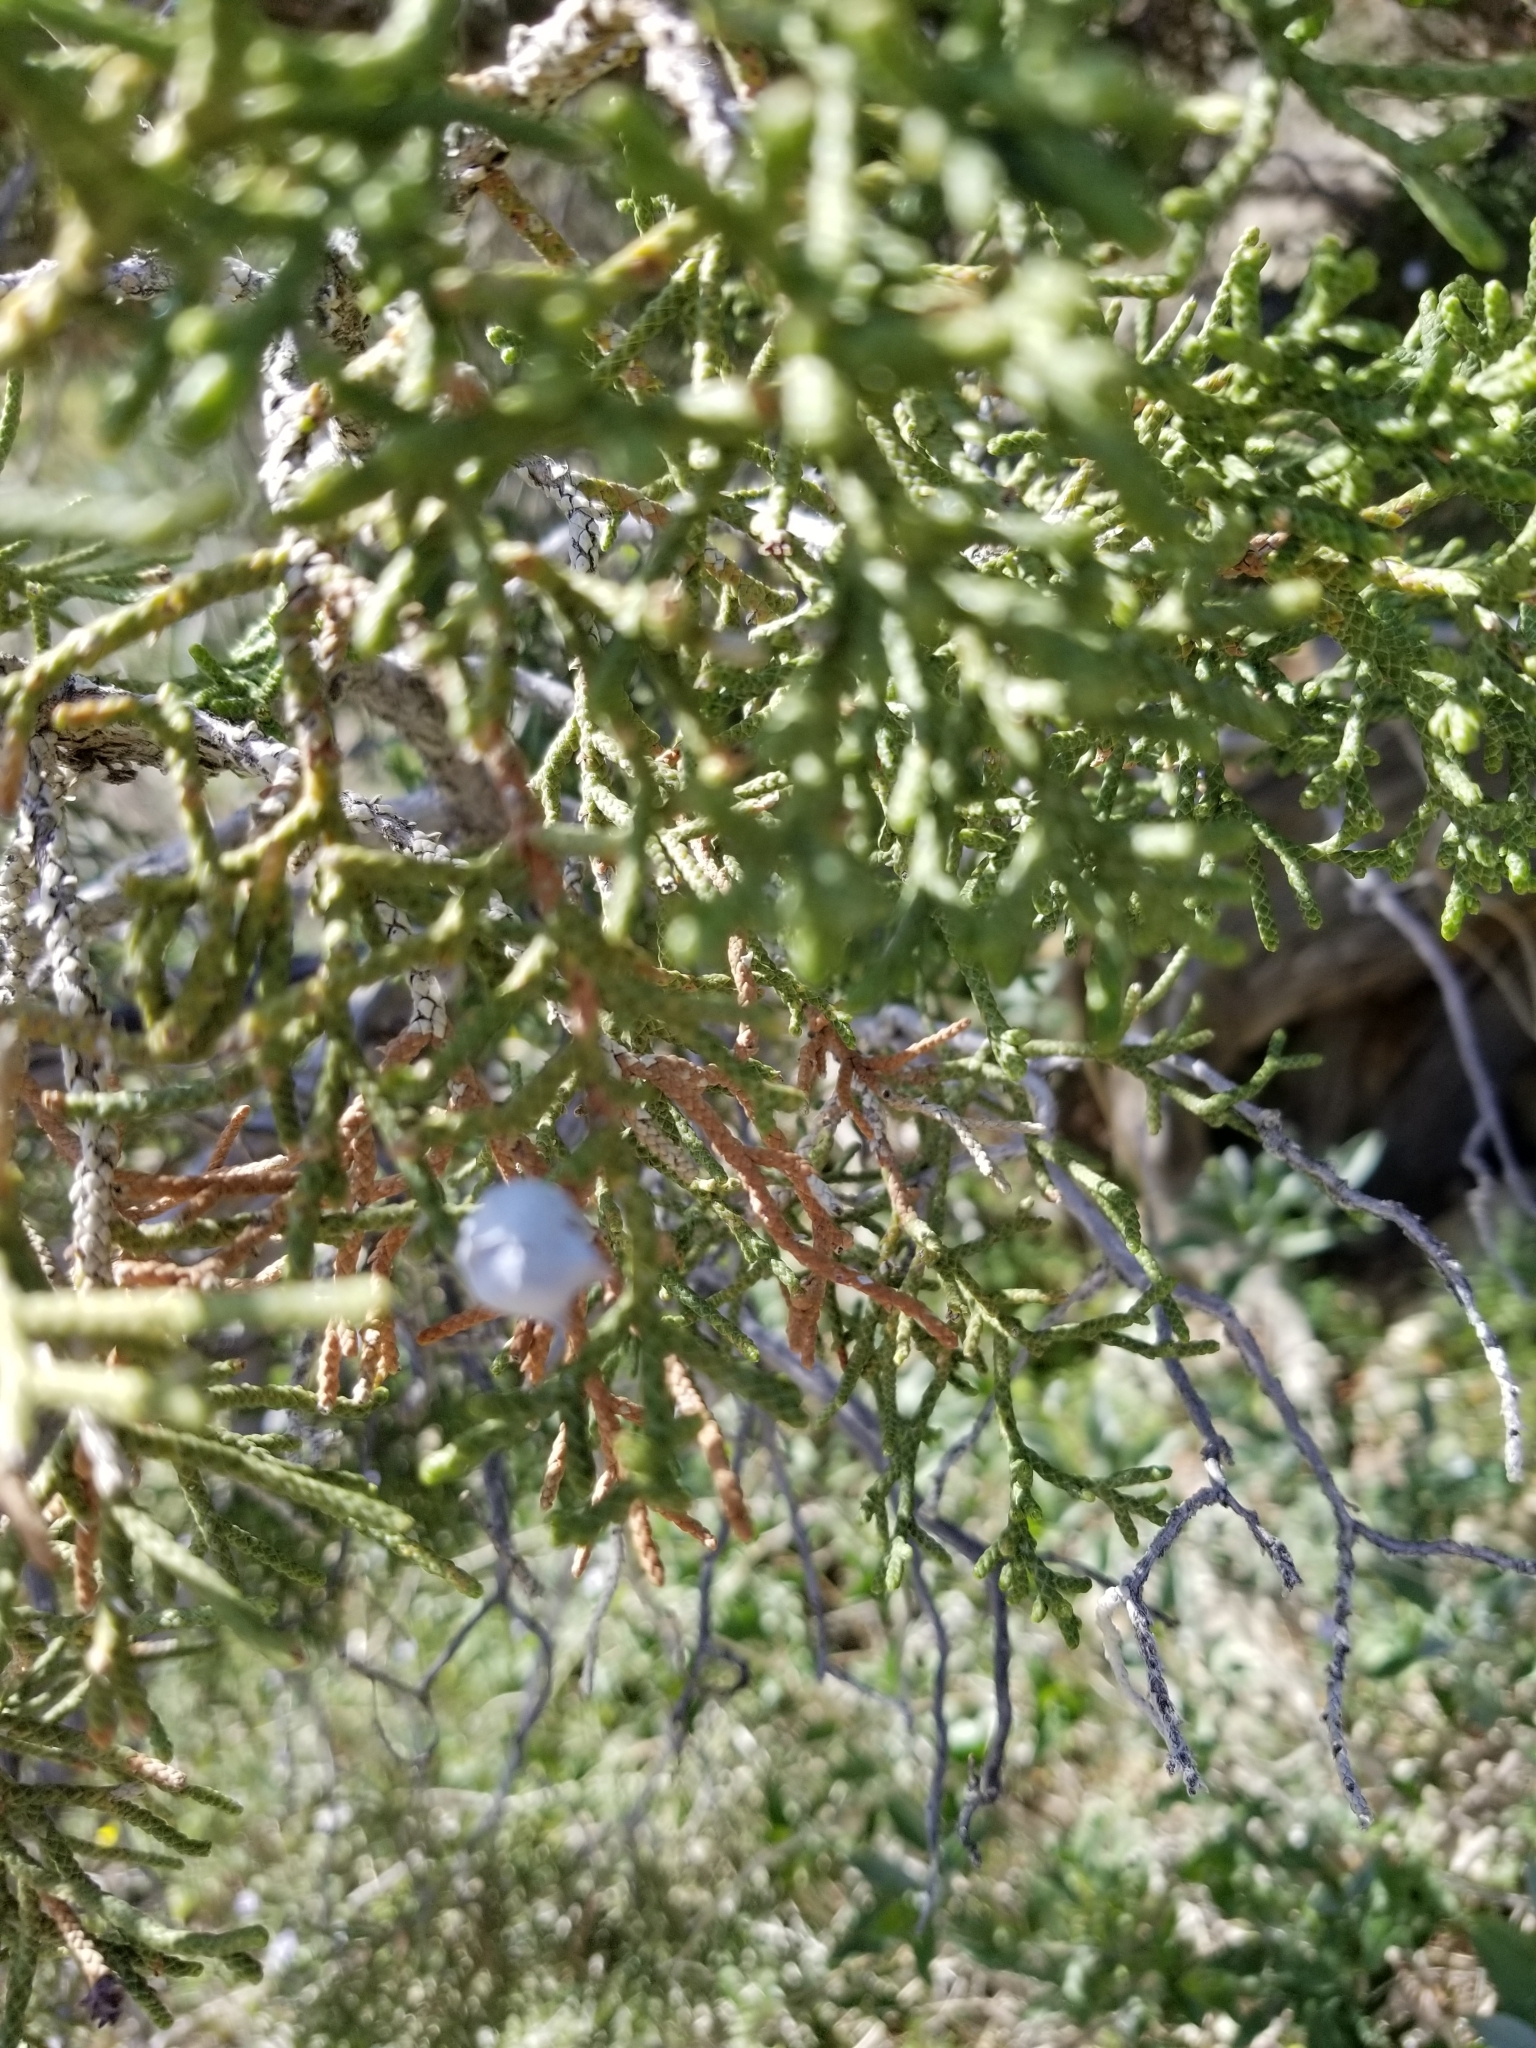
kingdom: Plantae
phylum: Tracheophyta
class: Pinopsida
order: Pinales
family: Cupressaceae
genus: Juniperus
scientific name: Juniperus californica
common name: California juniper
